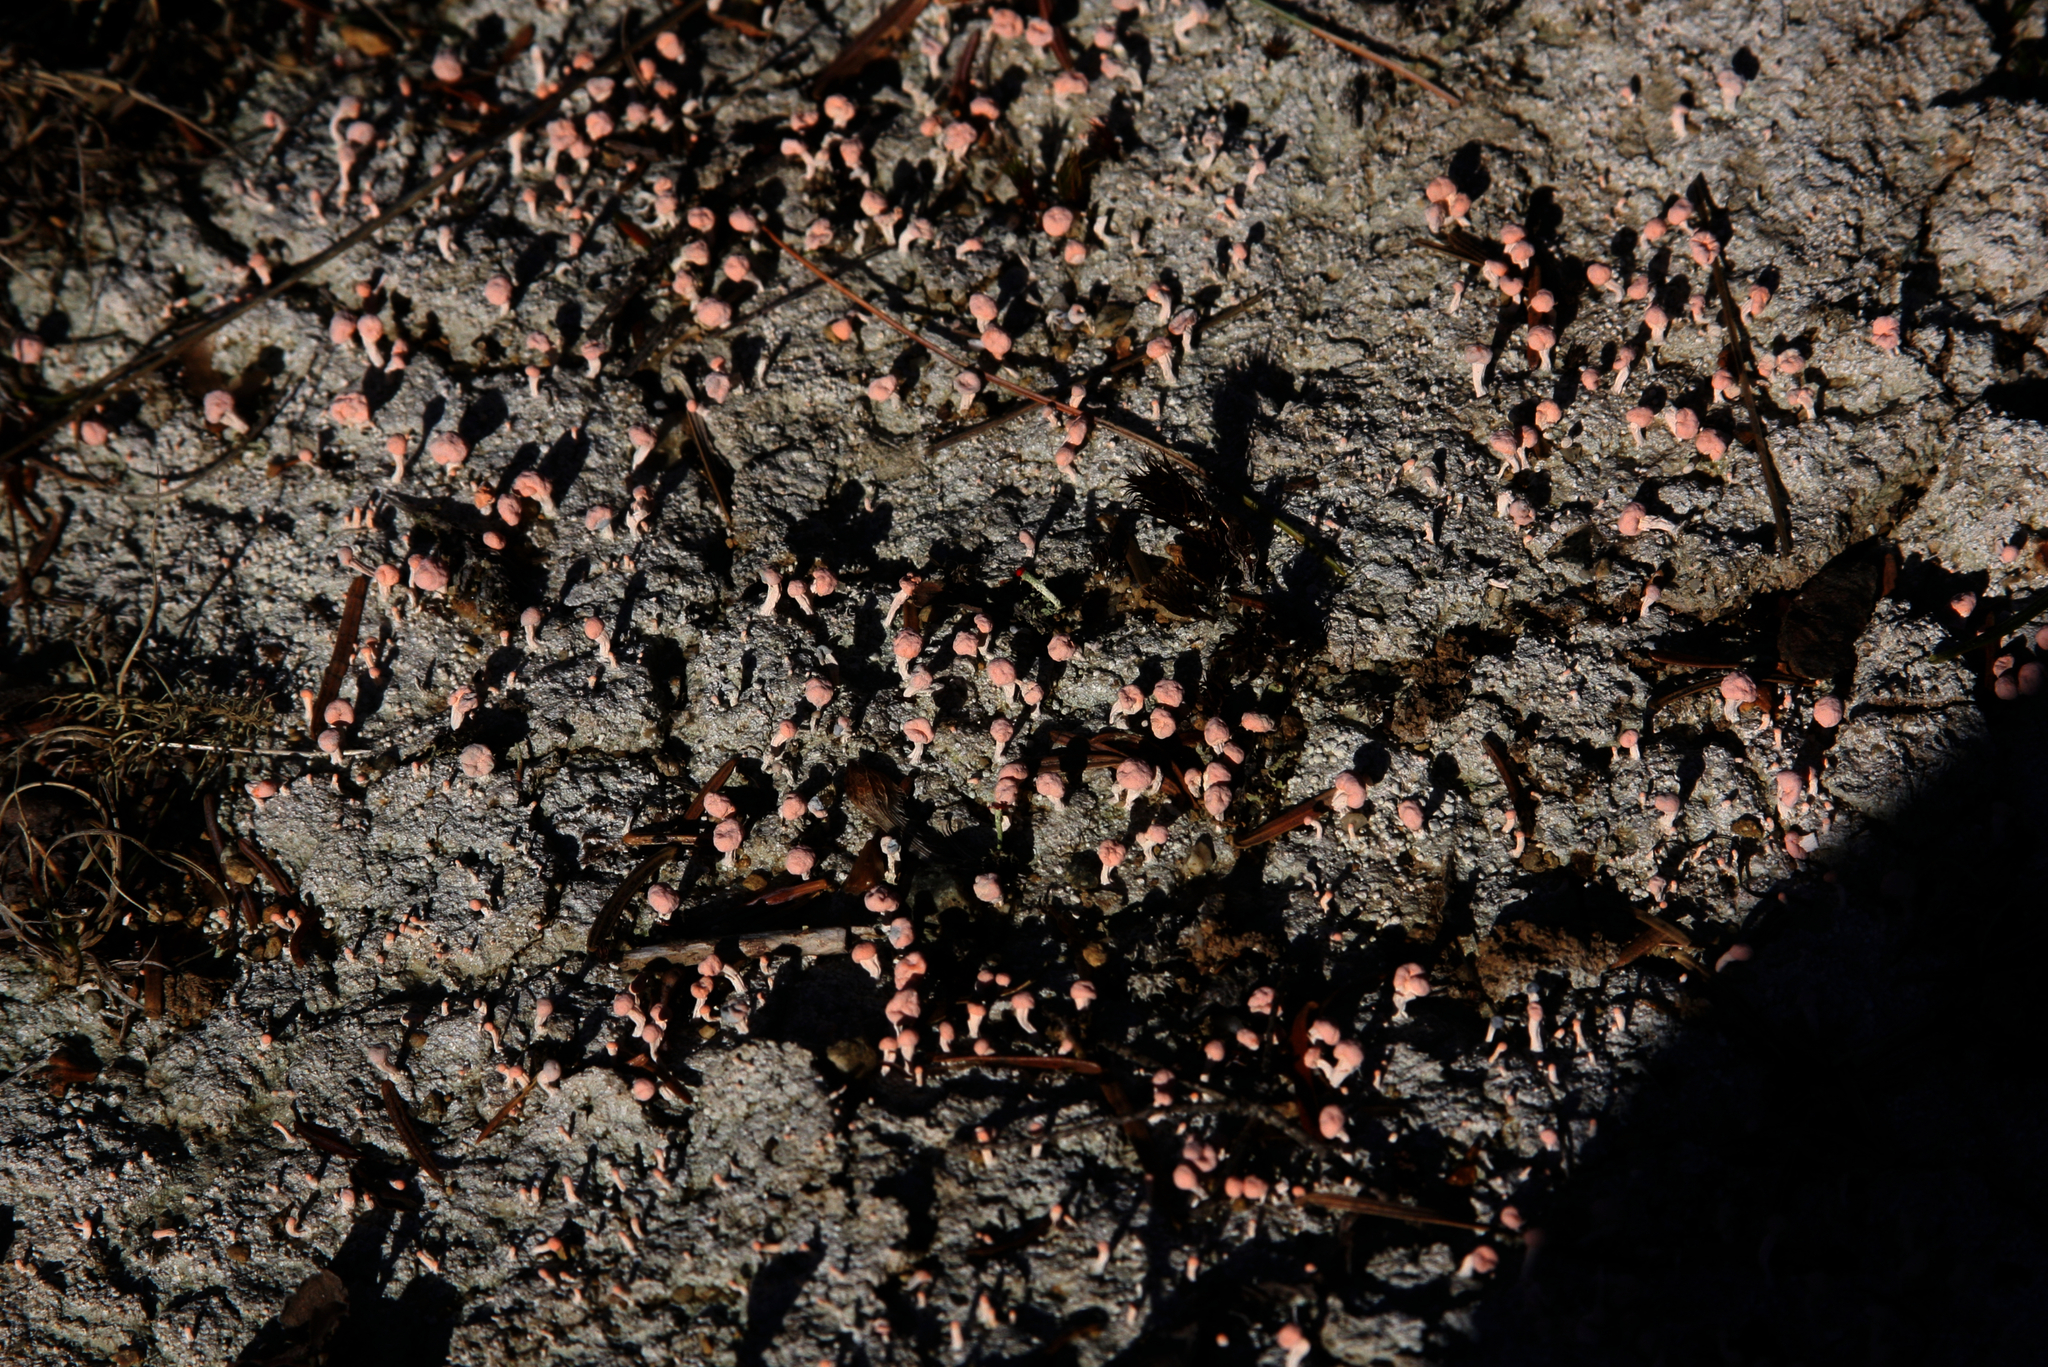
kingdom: Fungi
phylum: Ascomycota
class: Lecanoromycetes
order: Pertusariales
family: Icmadophilaceae
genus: Dibaeis
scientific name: Dibaeis baeomyces
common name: Pink earth lichen
